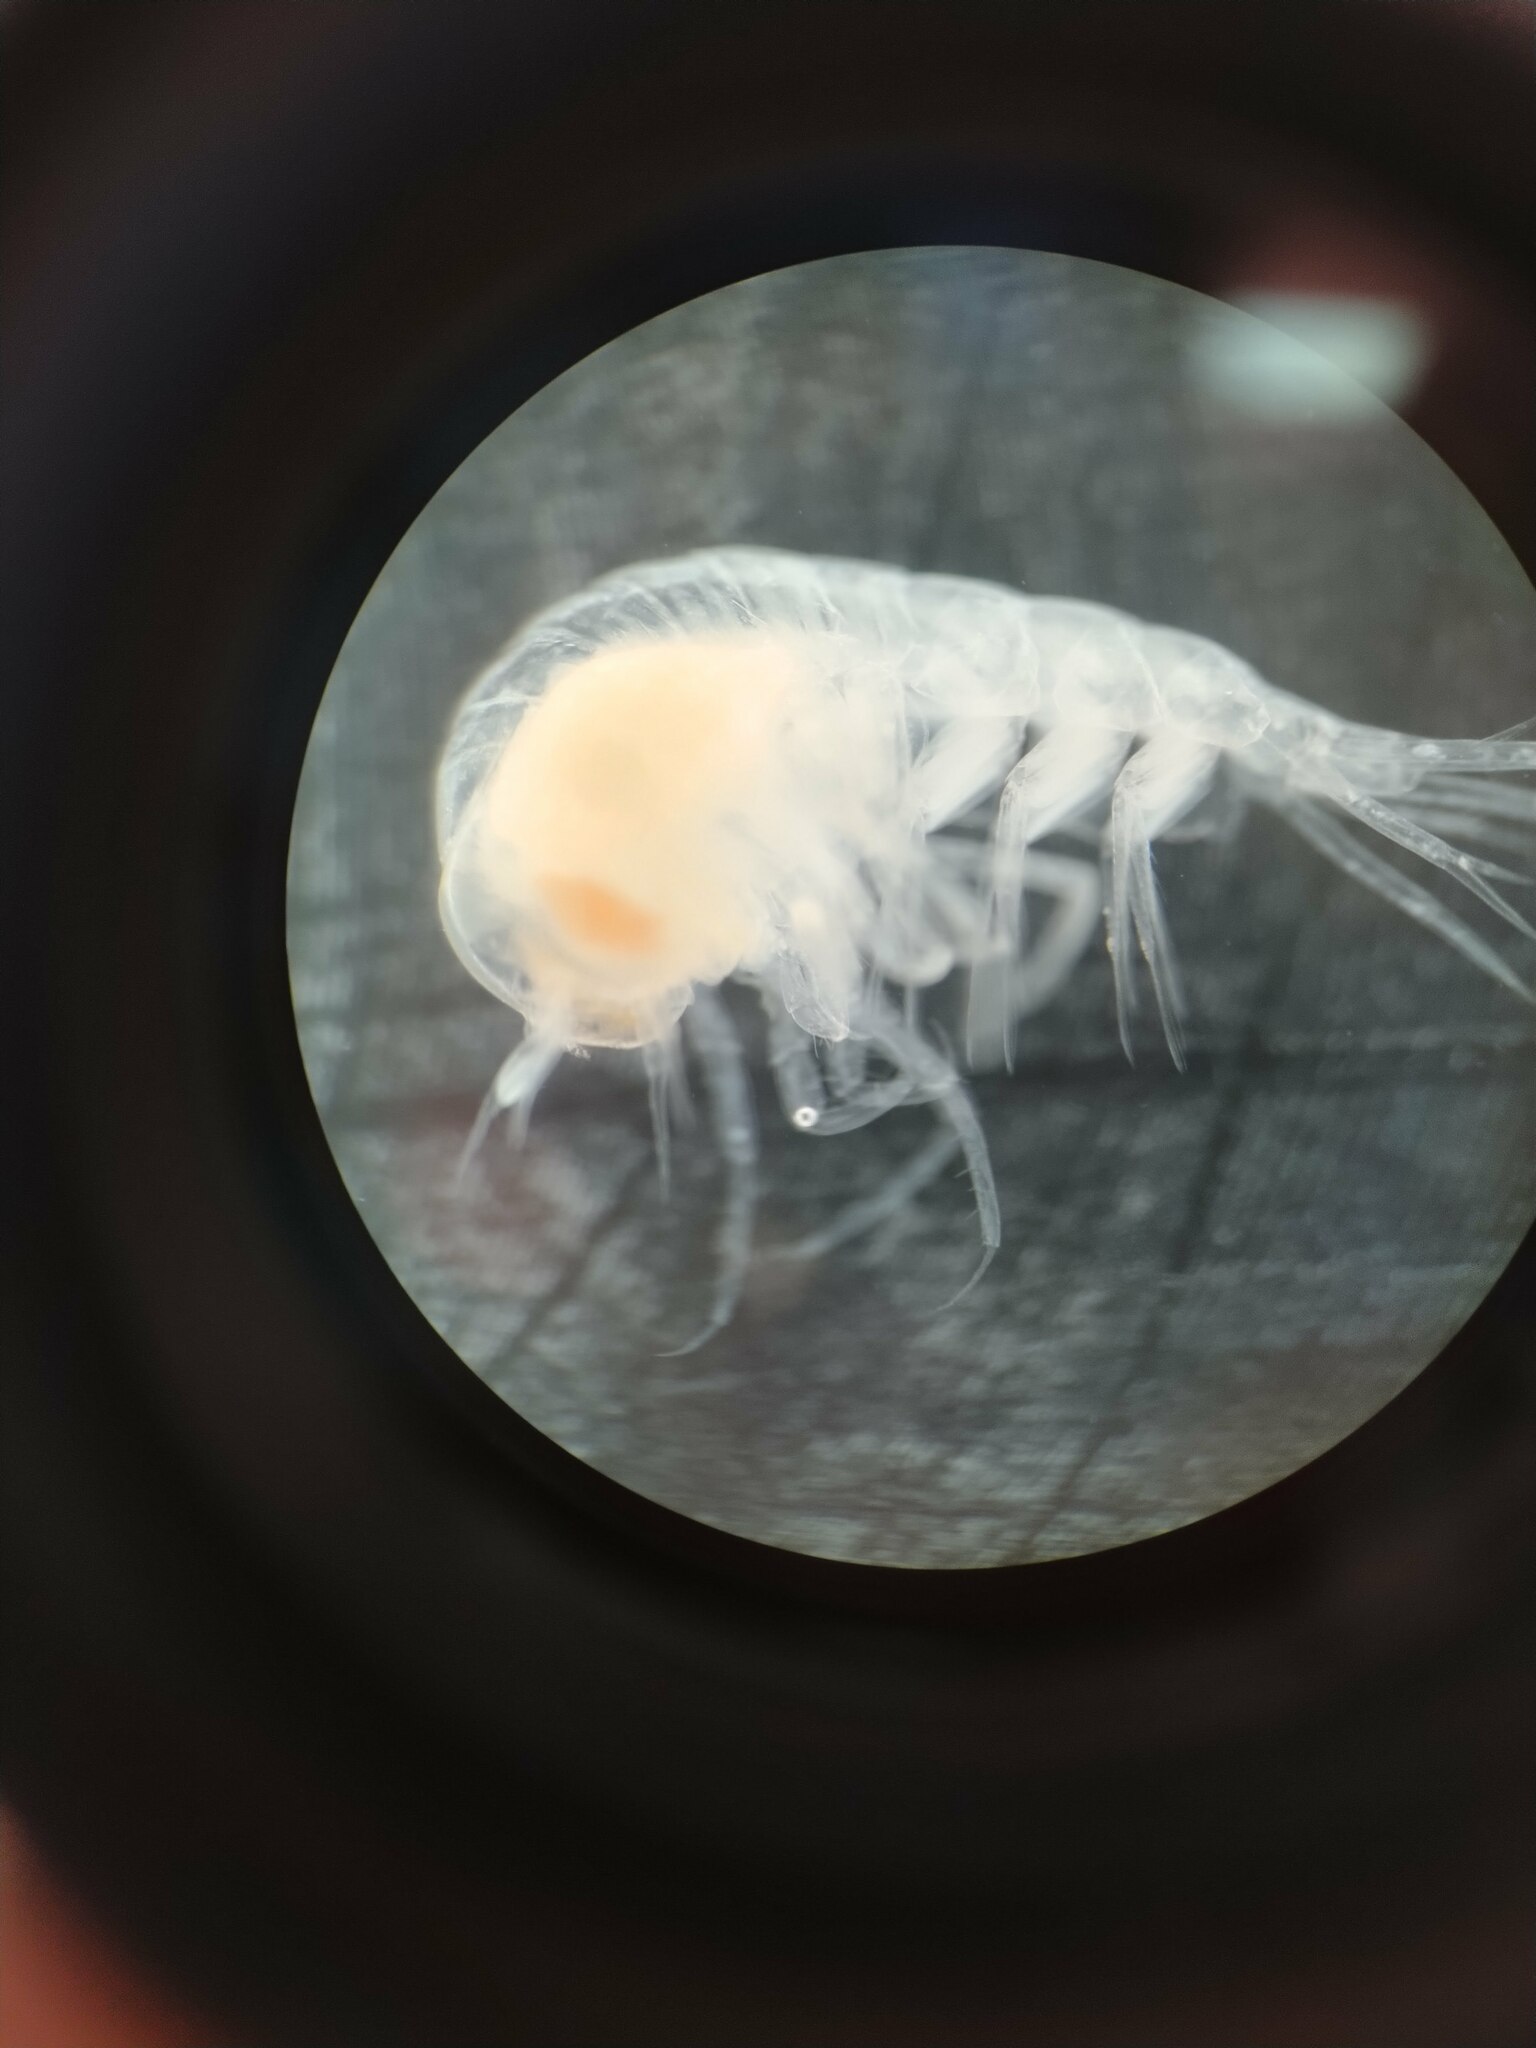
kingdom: Animalia
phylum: Arthropoda
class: Malacostraca
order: Amphipoda
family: Hyperiidae
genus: Themisto
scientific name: Themisto abyssorum
